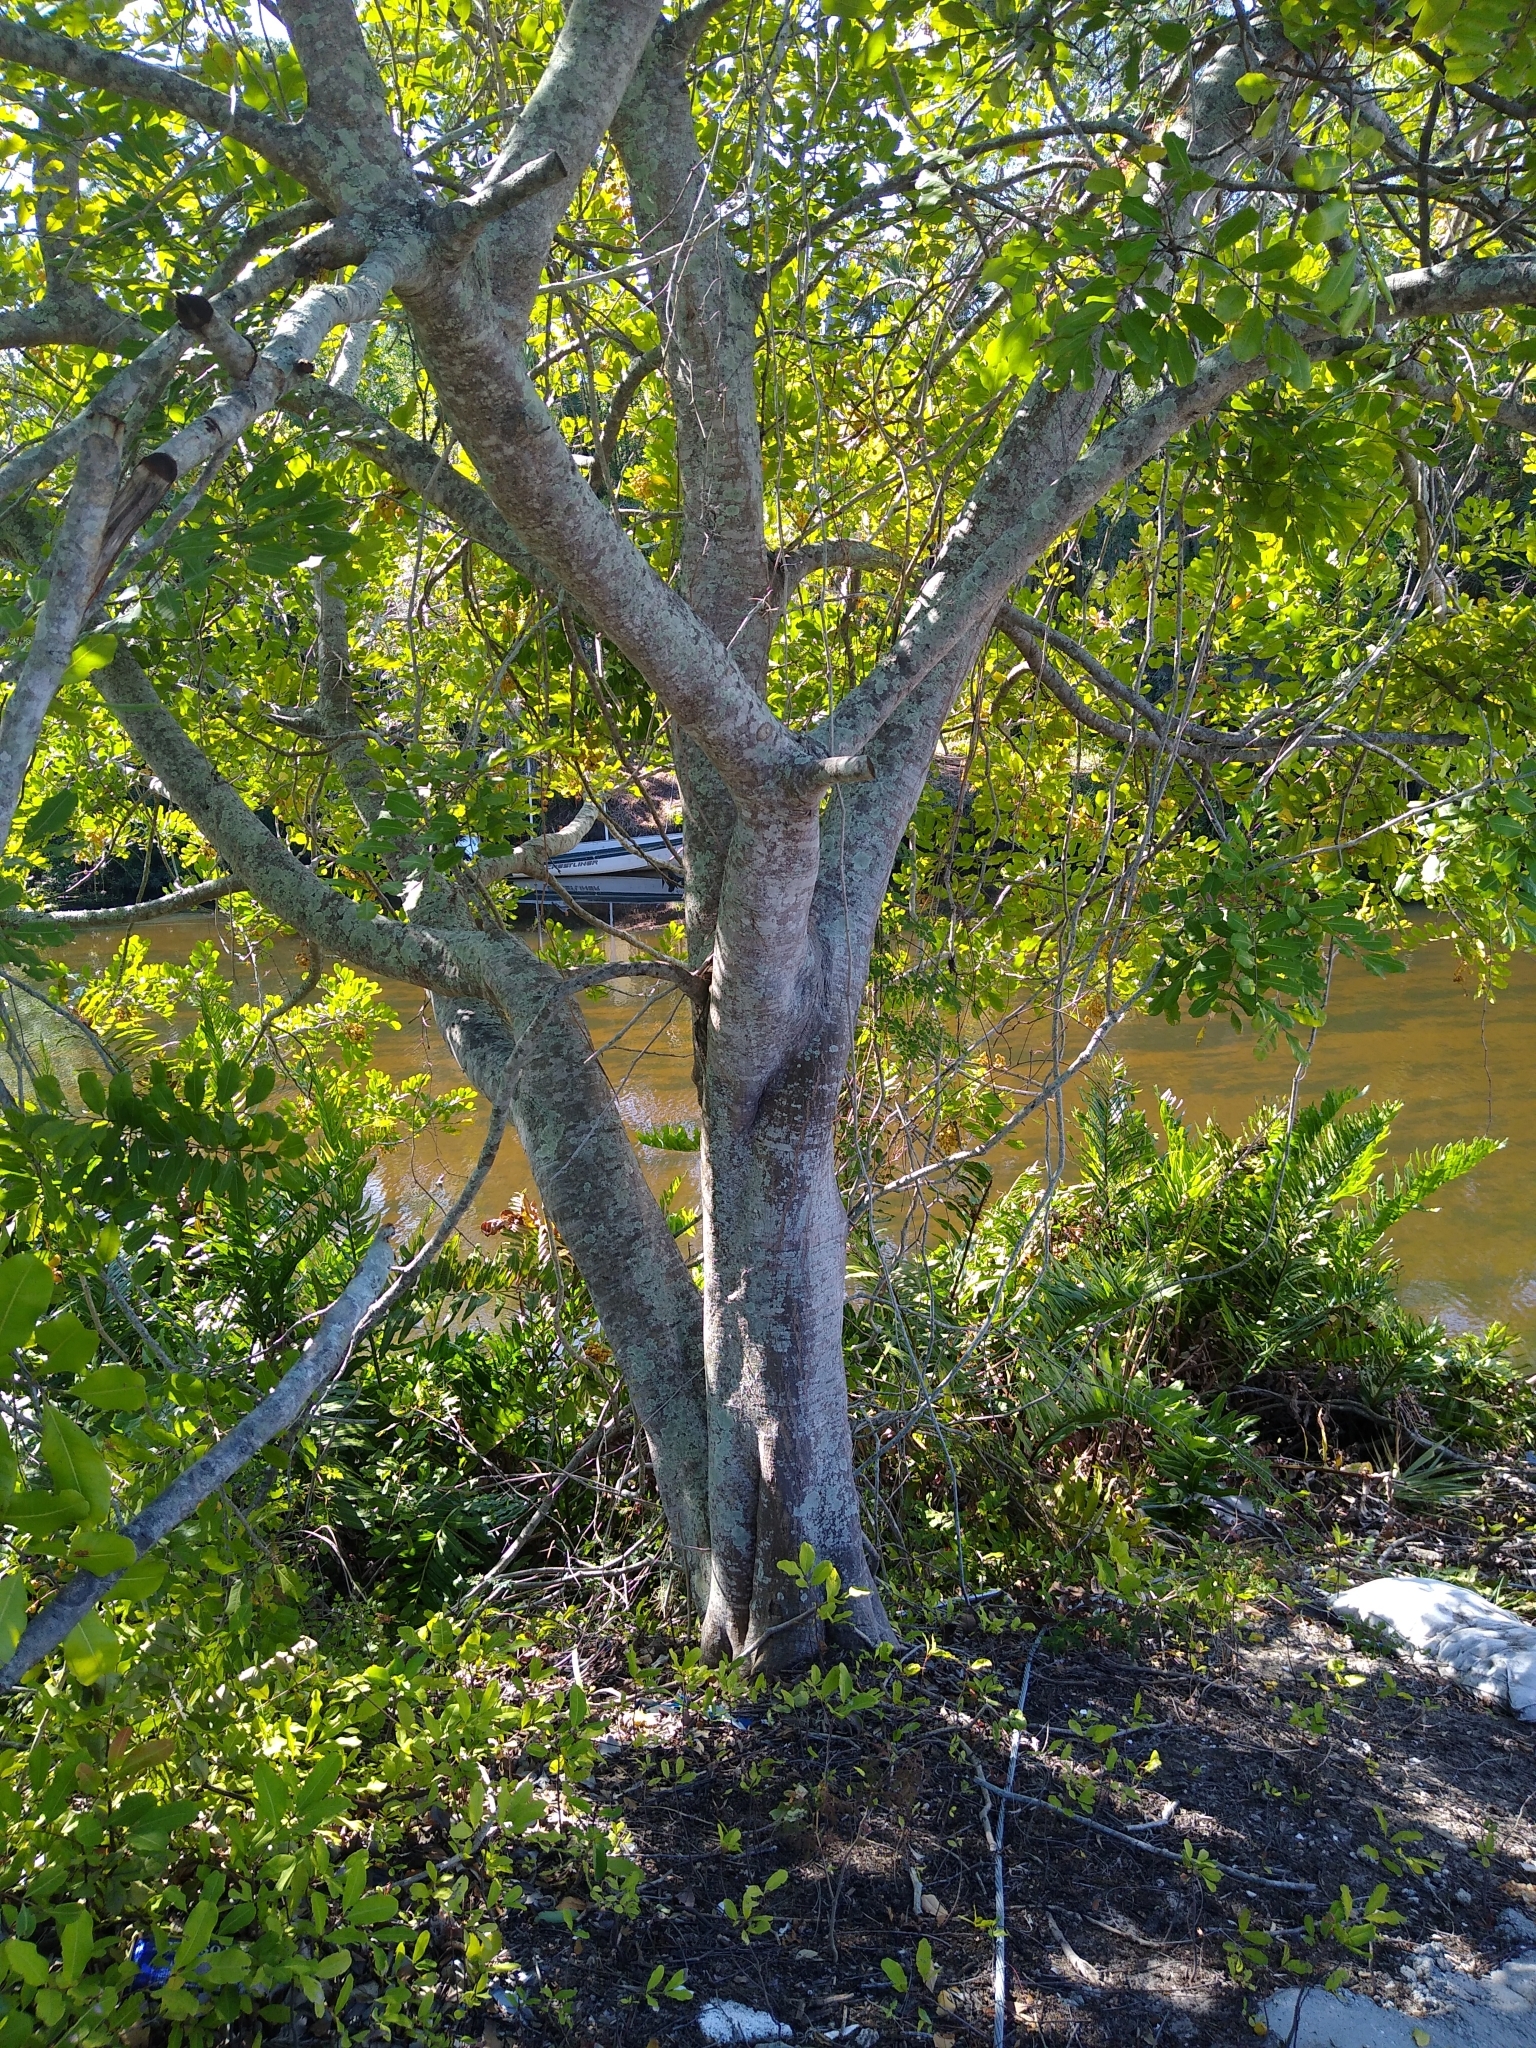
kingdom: Plantae
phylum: Tracheophyta
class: Magnoliopsida
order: Sapindales
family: Sapindaceae
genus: Cupaniopsis
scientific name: Cupaniopsis anacardioides
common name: Carrotwood
